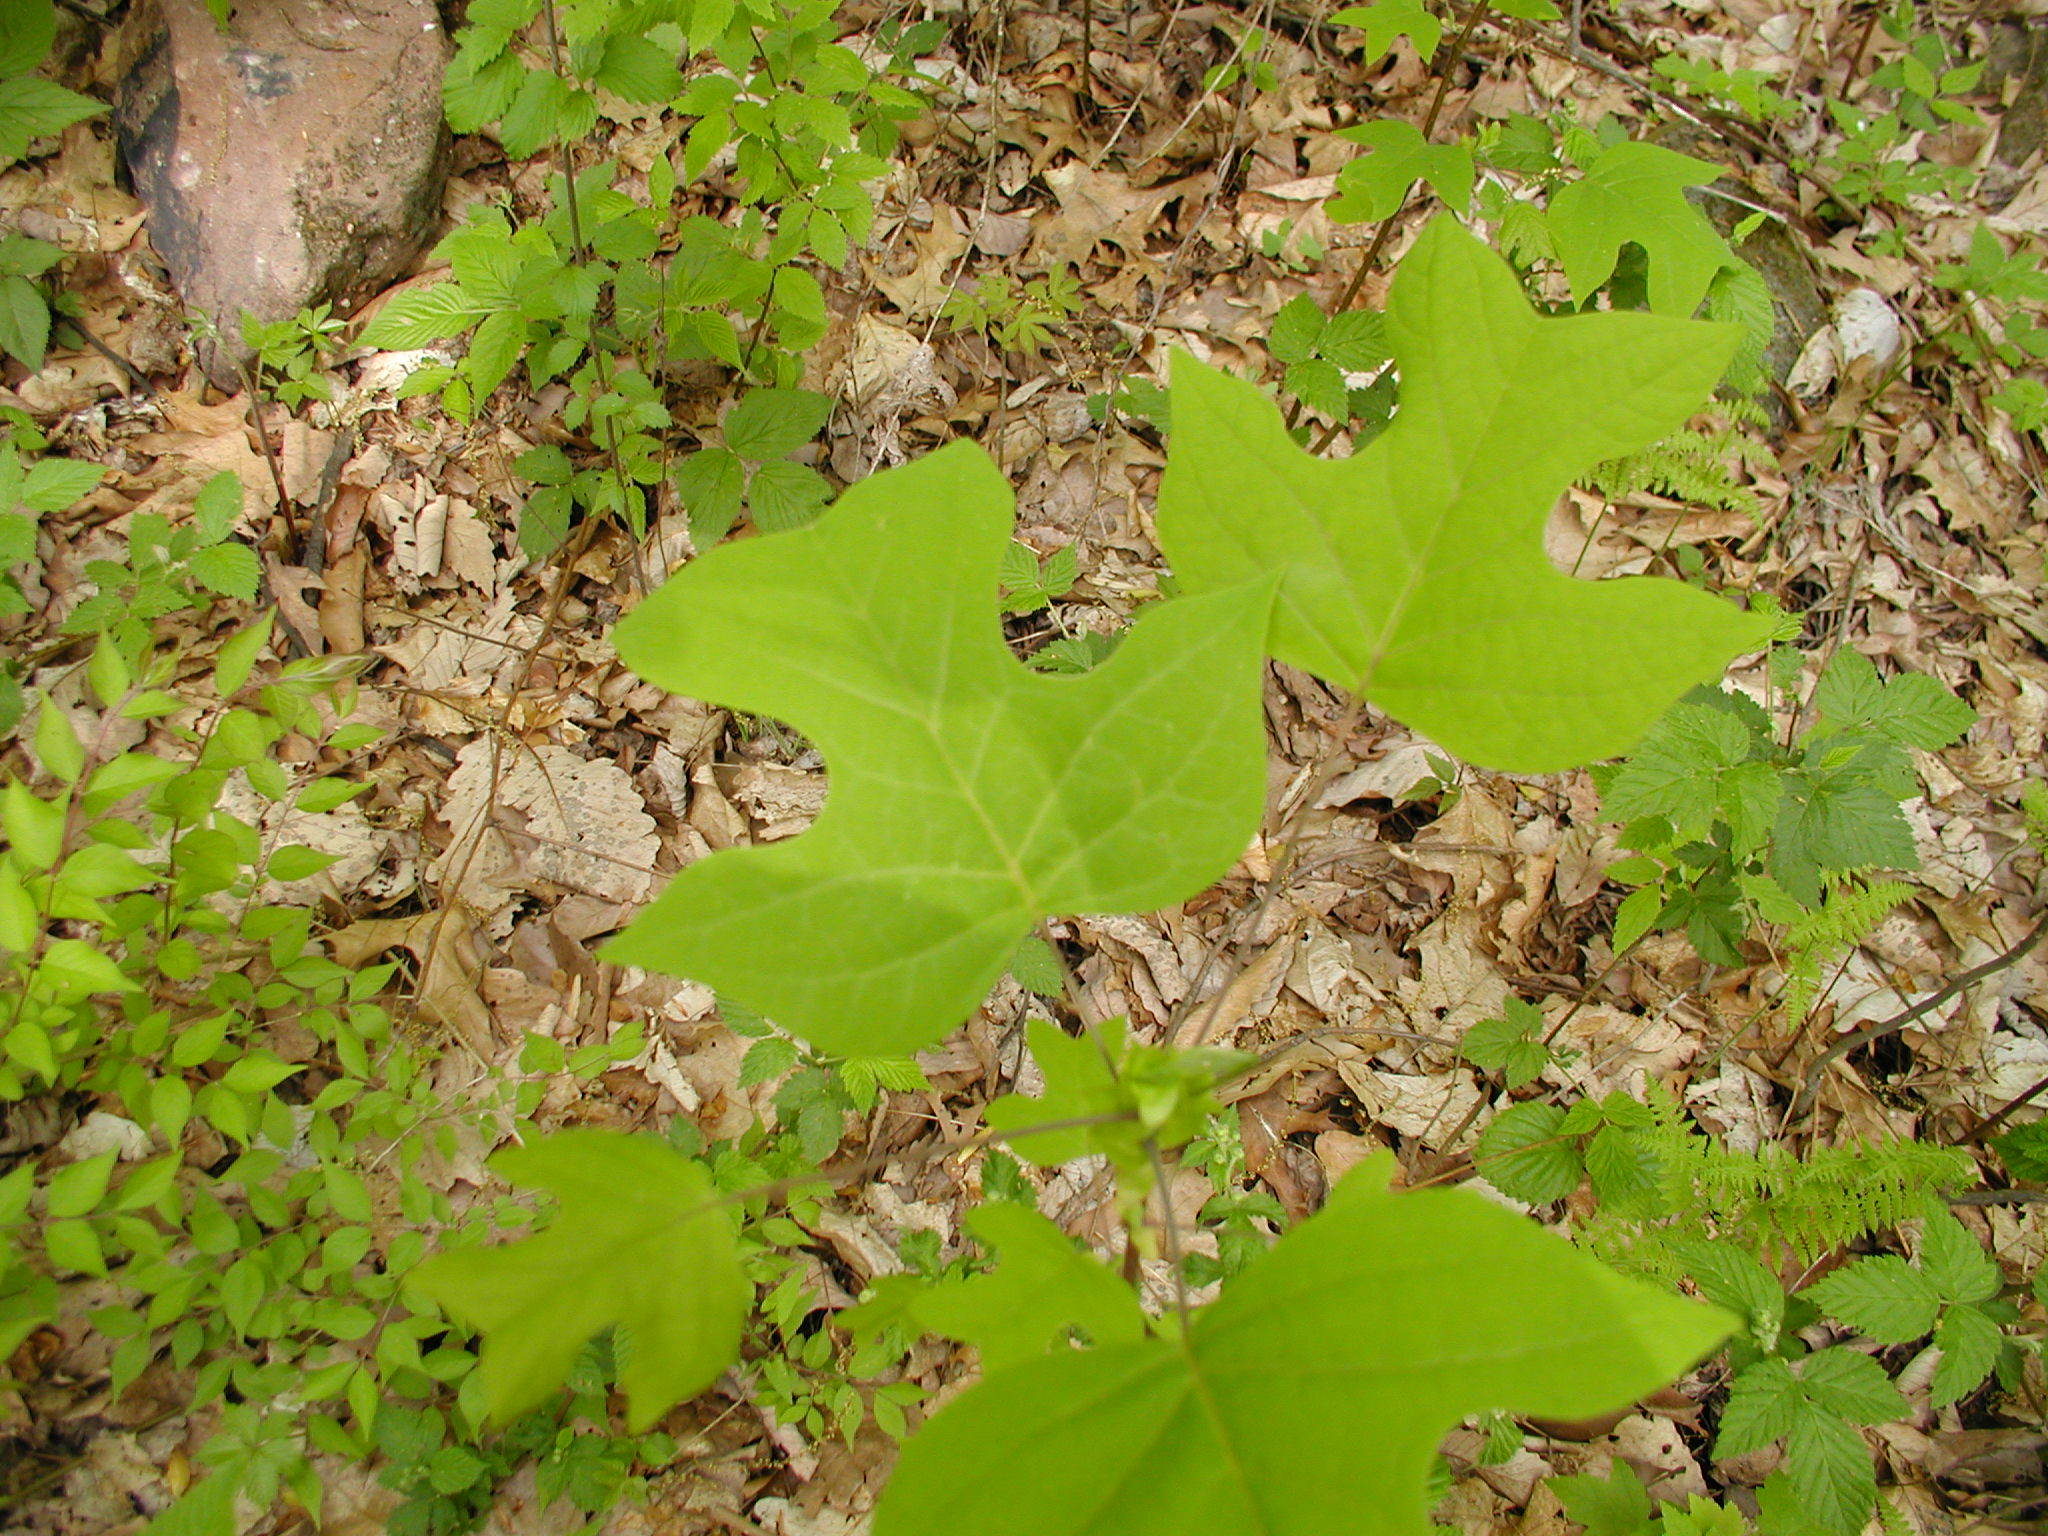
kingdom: Plantae
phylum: Tracheophyta
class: Magnoliopsida
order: Magnoliales
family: Magnoliaceae
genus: Liriodendron
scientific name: Liriodendron tulipifera
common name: Tulip tree
